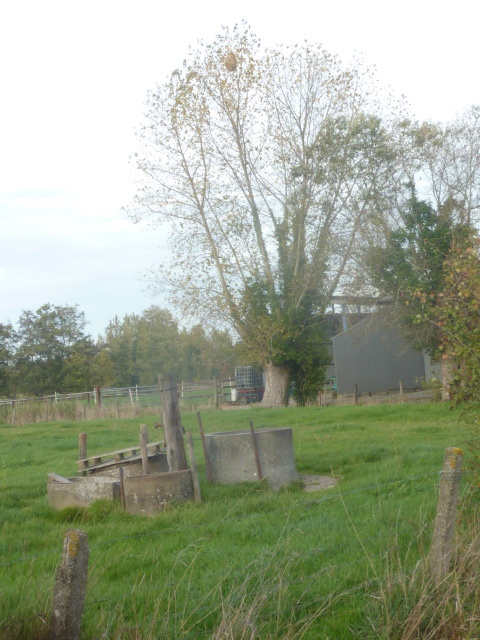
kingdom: Animalia
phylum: Arthropoda
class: Insecta
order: Hymenoptera
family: Vespidae
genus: Vespa
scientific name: Vespa velutina
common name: Asian hornet
